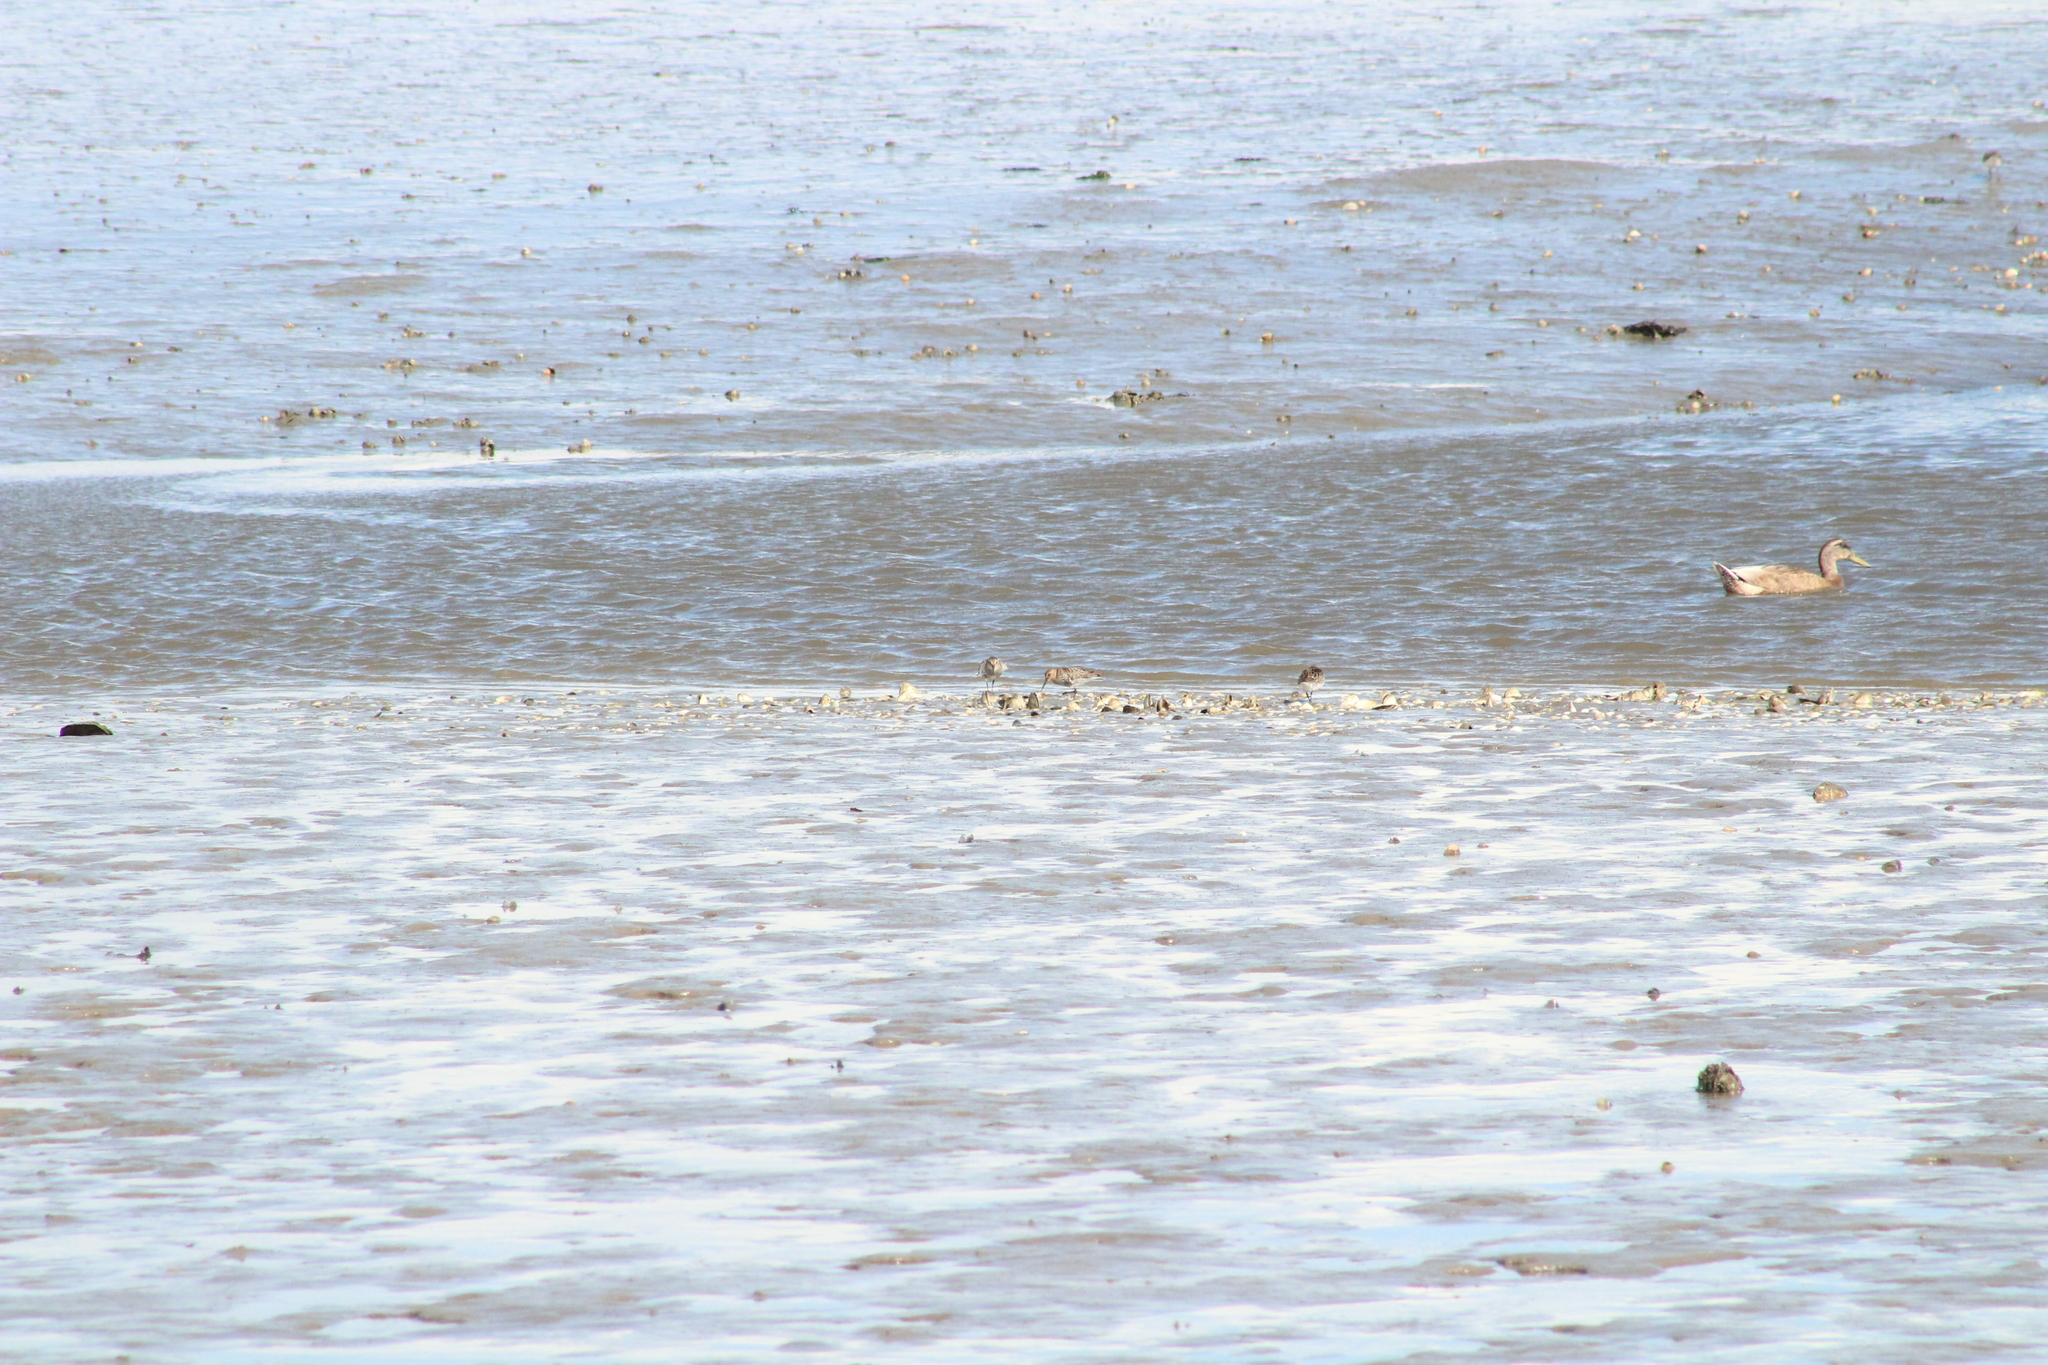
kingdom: Animalia
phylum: Chordata
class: Aves
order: Charadriiformes
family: Scolopacidae
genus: Calidris
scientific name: Calidris alpina
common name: Dunlin
